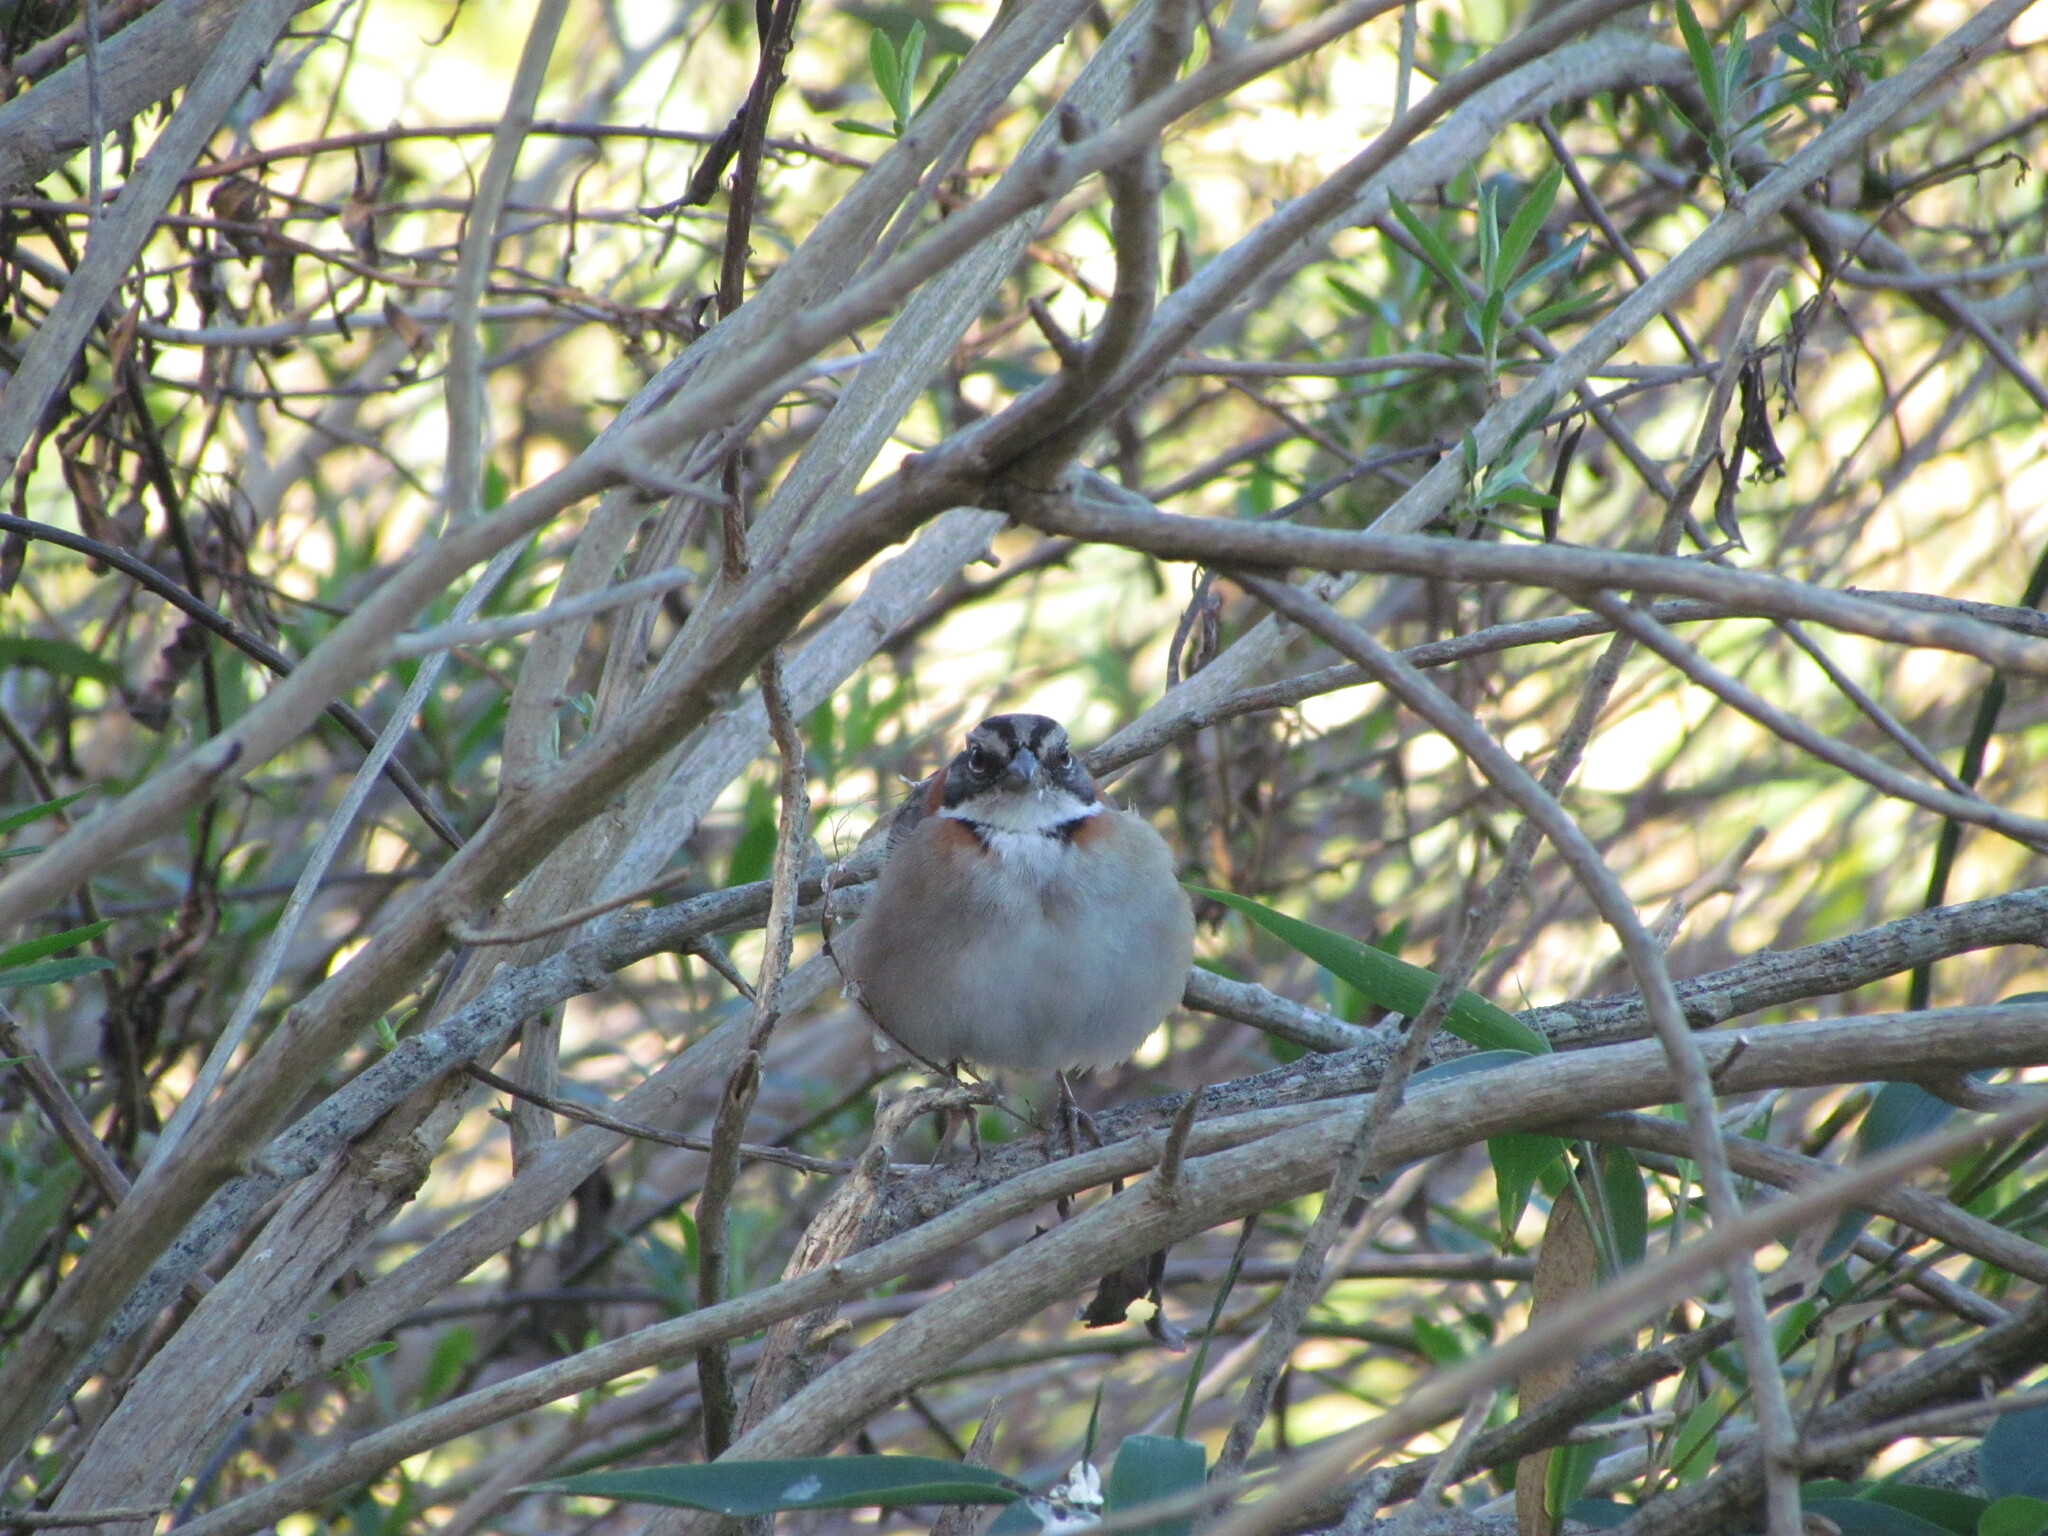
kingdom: Animalia
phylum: Chordata
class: Aves
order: Passeriformes
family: Passerellidae
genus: Zonotrichia
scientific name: Zonotrichia capensis
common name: Rufous-collared sparrow
